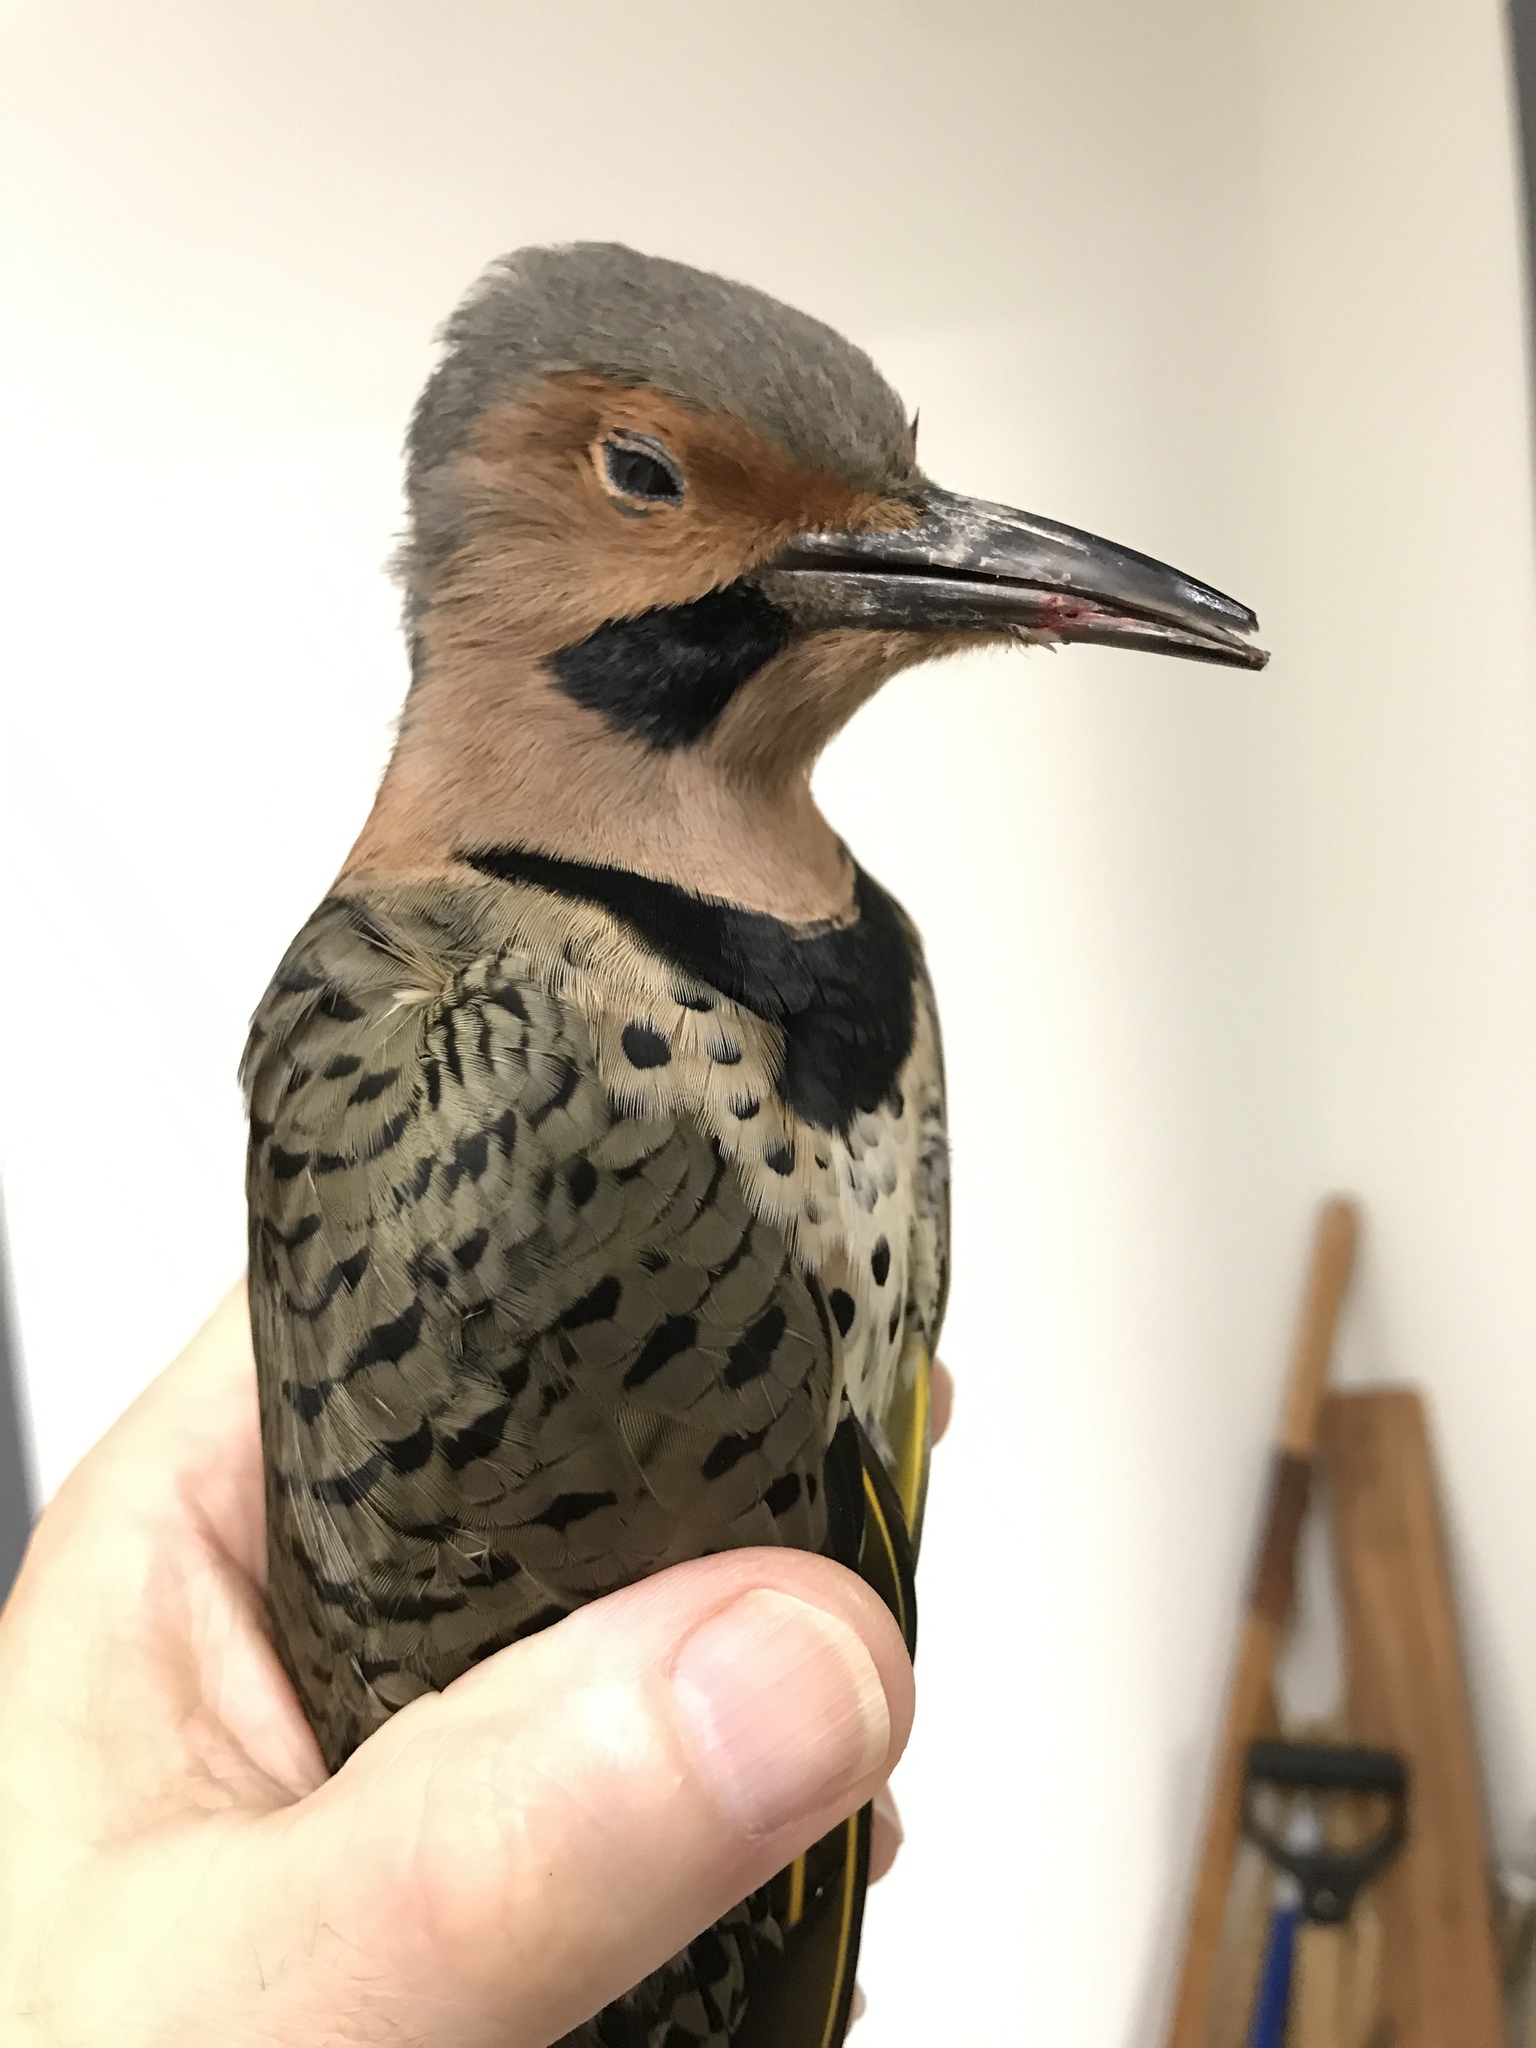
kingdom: Animalia
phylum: Chordata
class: Aves
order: Piciformes
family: Picidae
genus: Colaptes
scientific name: Colaptes auratus
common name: Northern flicker
